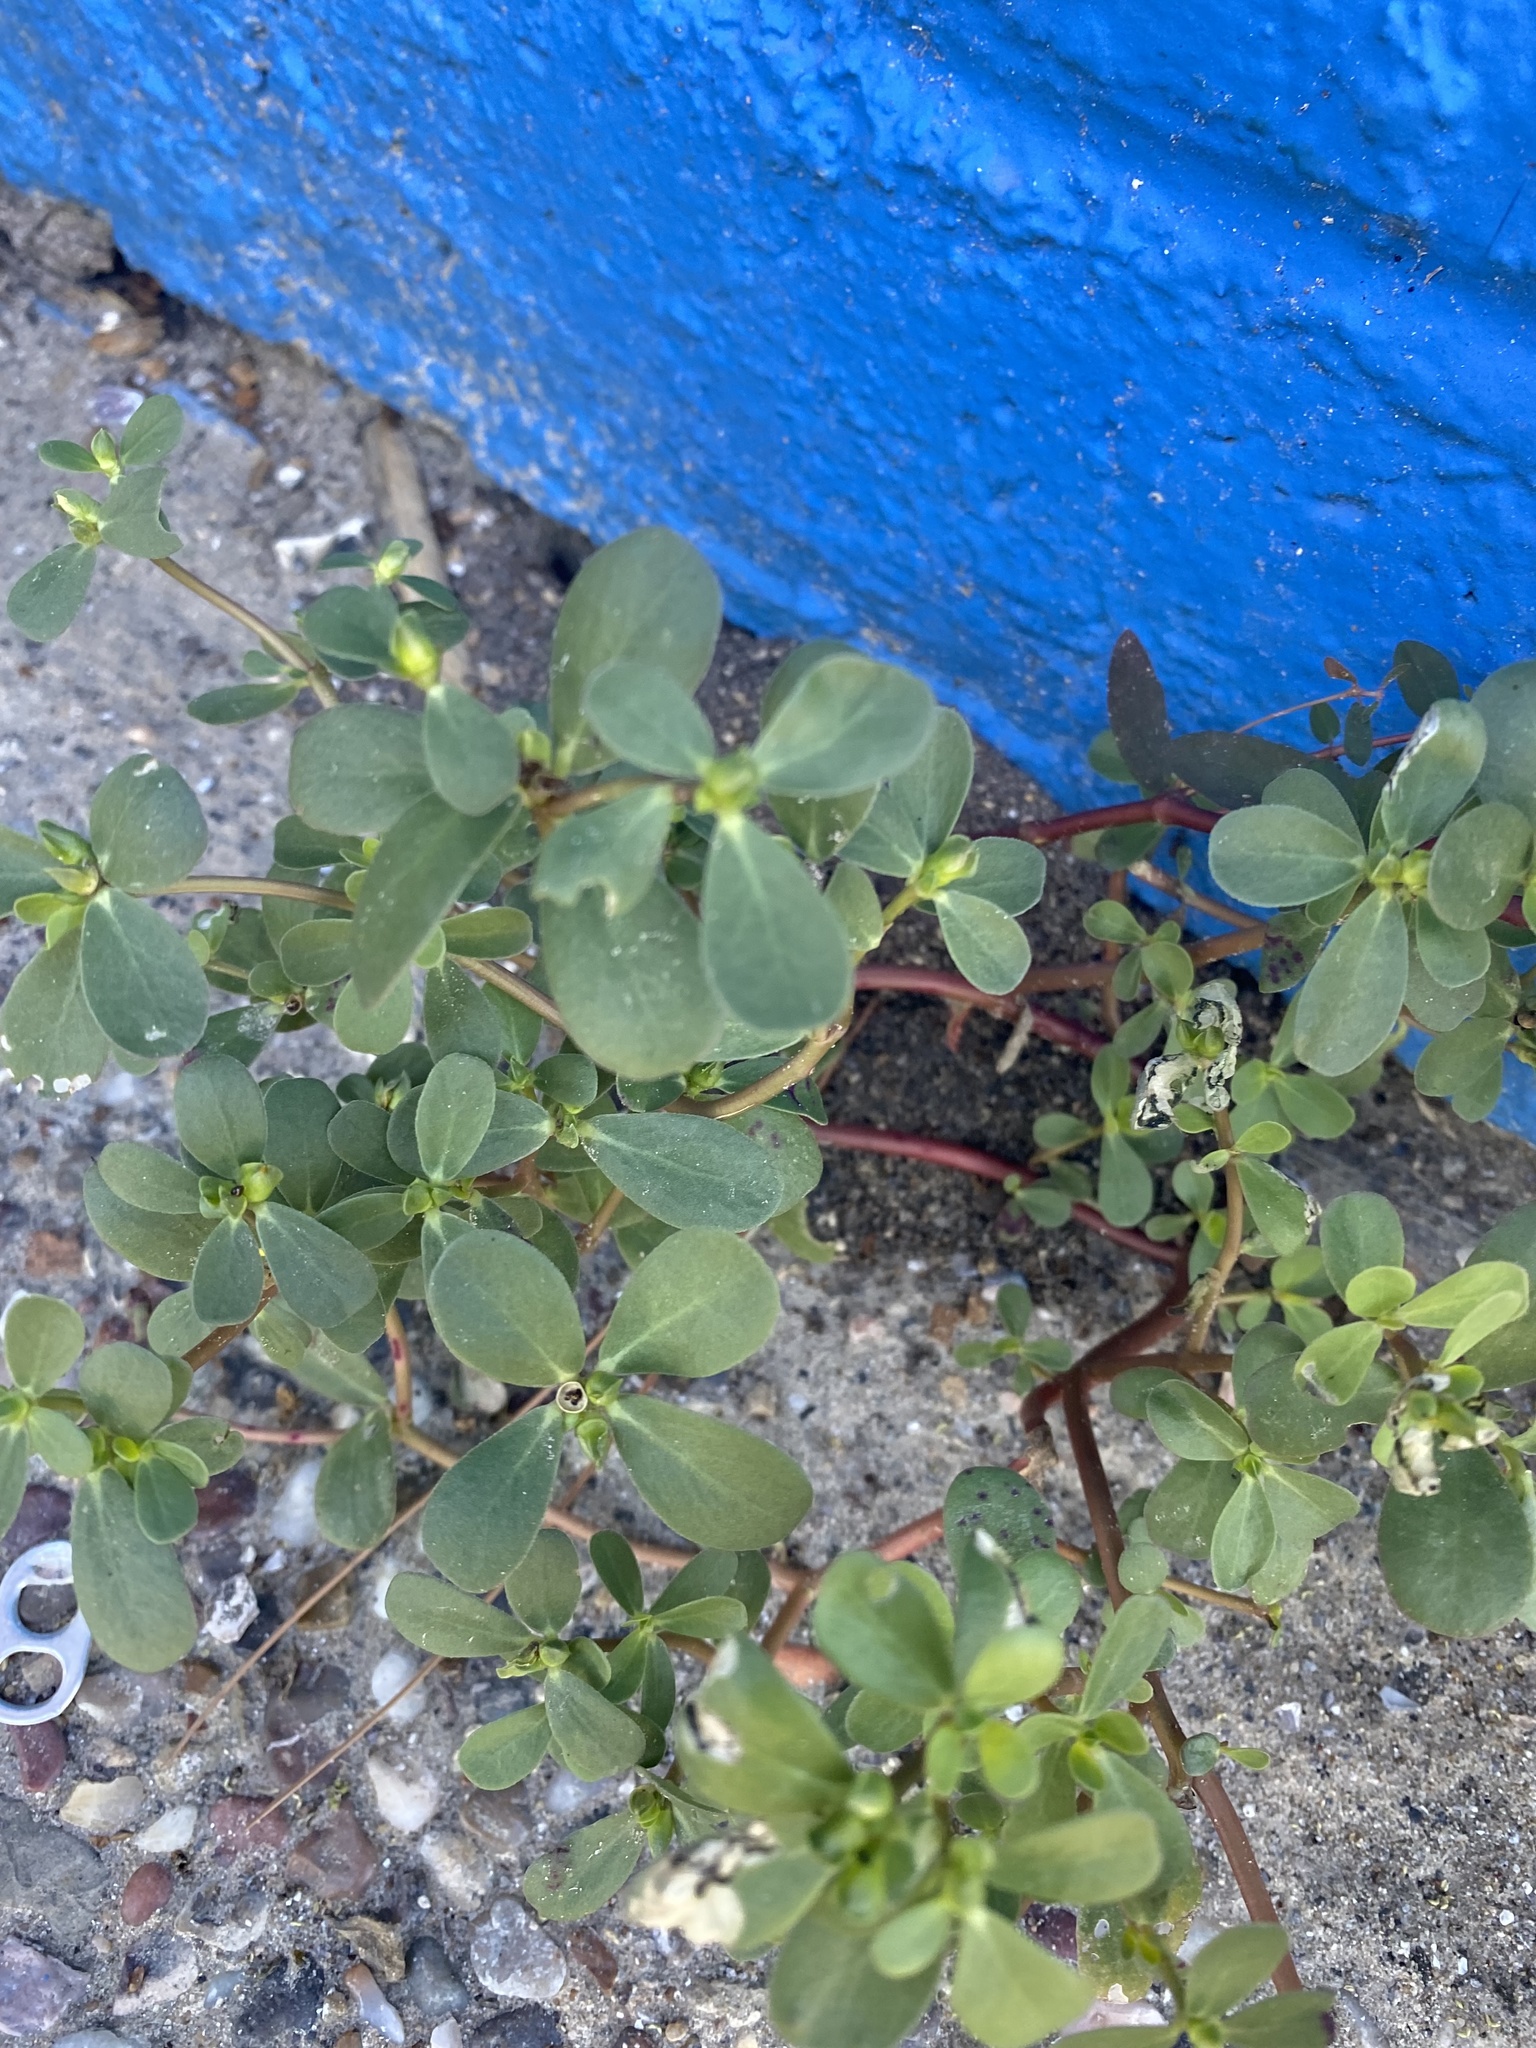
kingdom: Plantae
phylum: Tracheophyta
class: Magnoliopsida
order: Caryophyllales
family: Portulacaceae
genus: Portulaca
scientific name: Portulaca oleracea
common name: Common purslane
